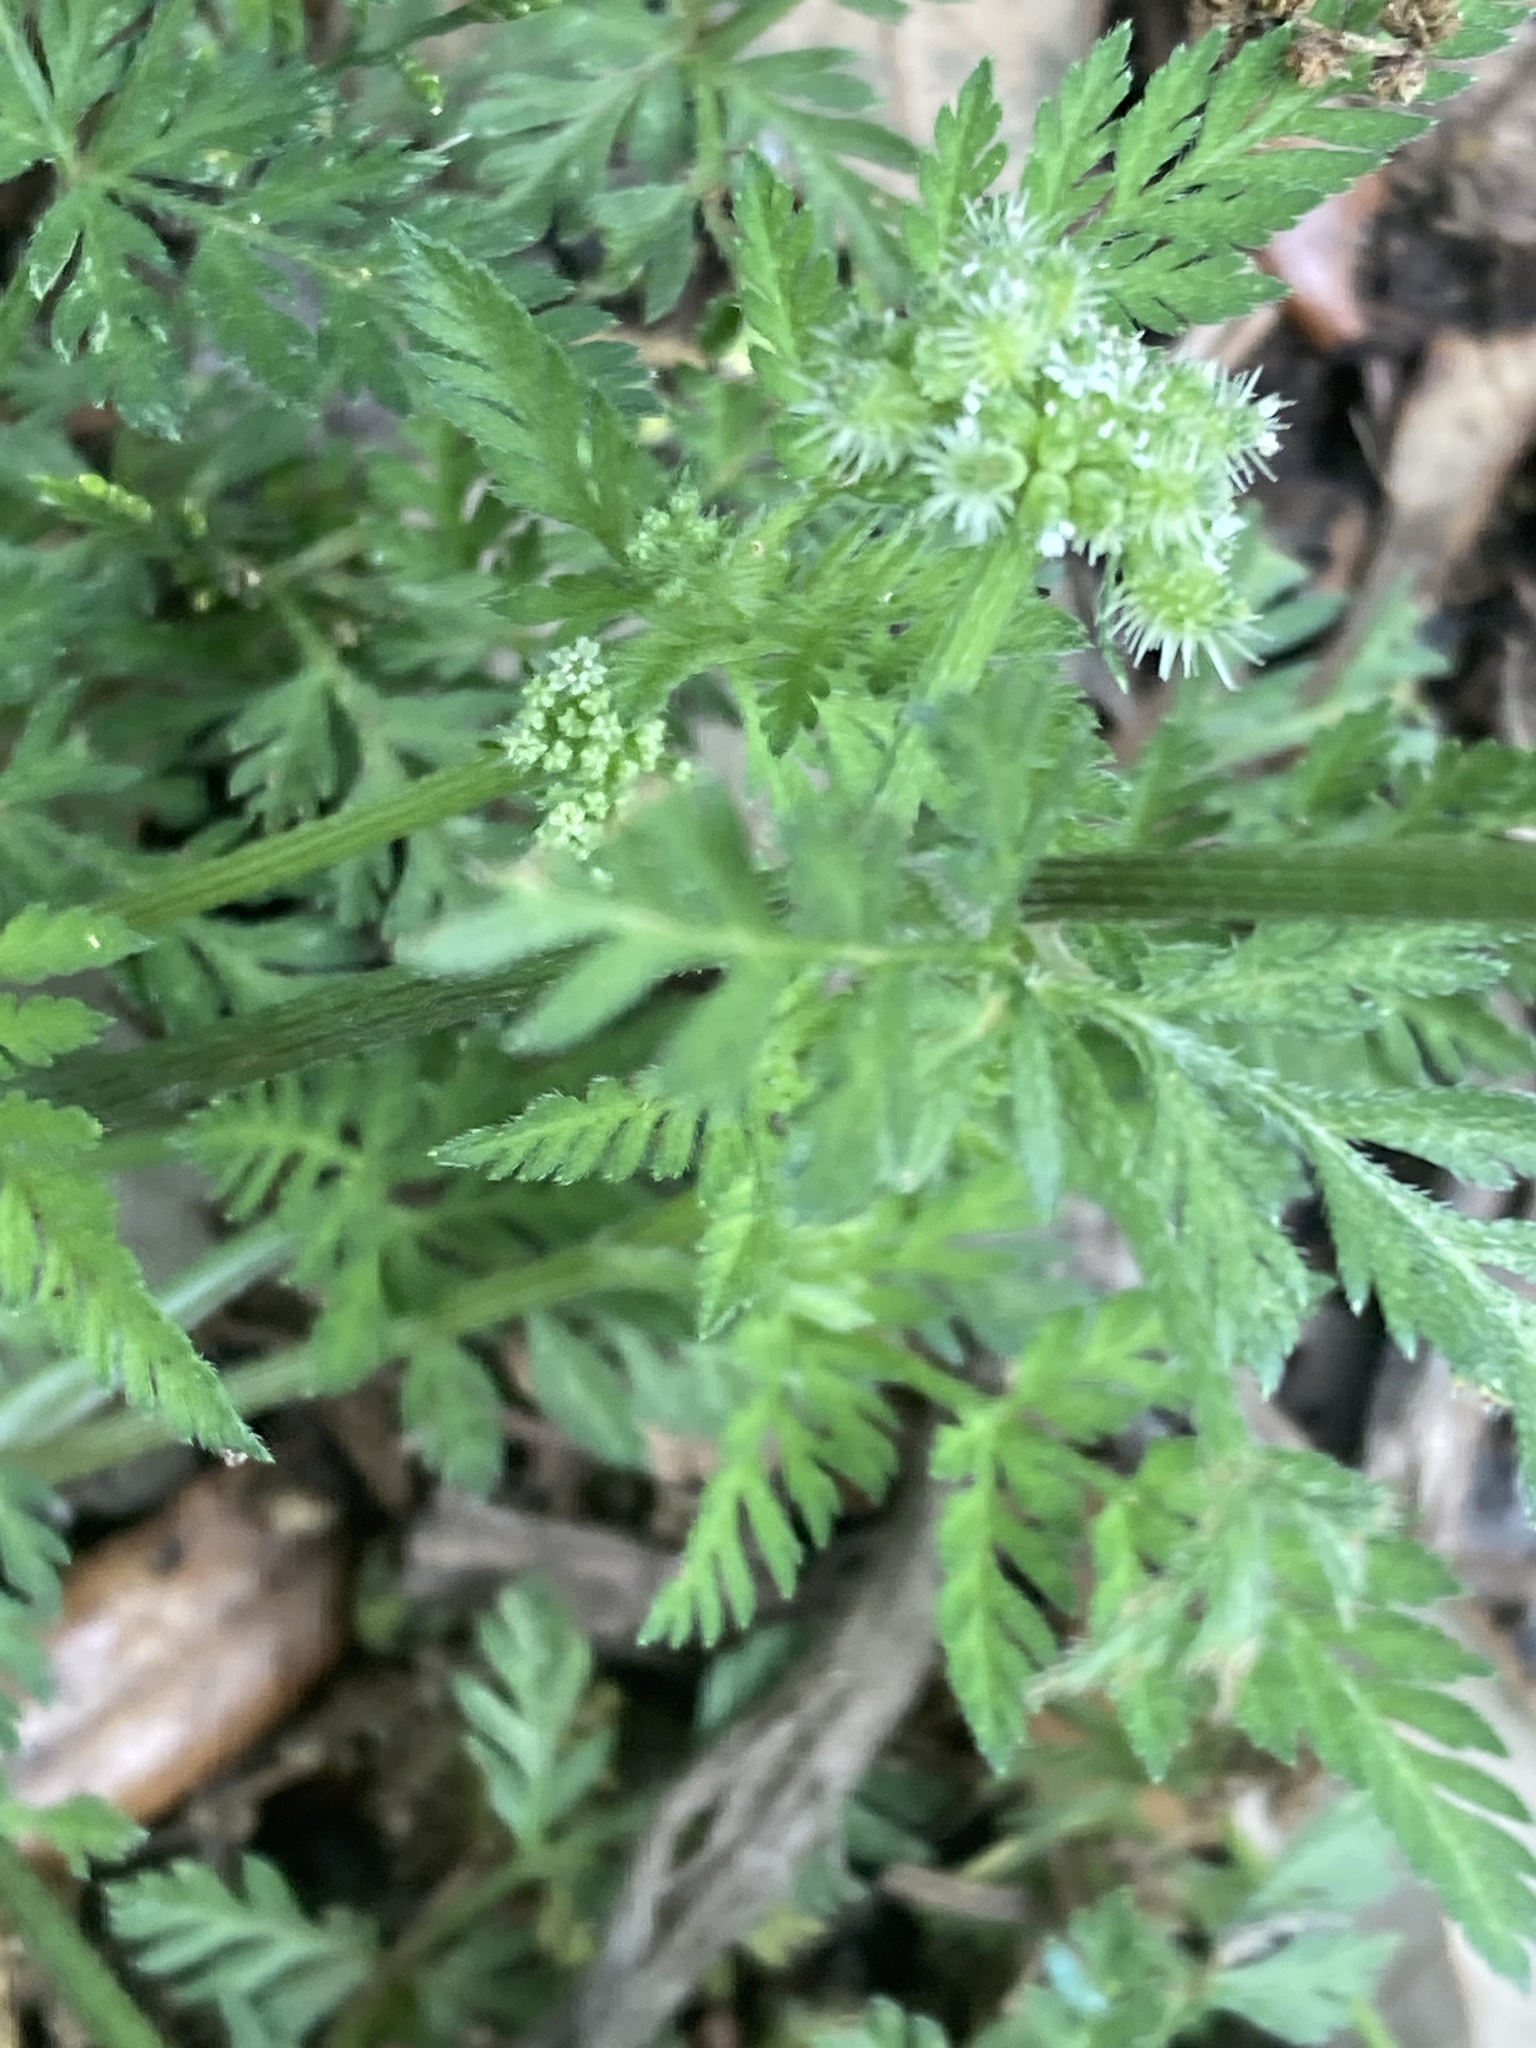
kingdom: Plantae
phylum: Tracheophyta
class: Magnoliopsida
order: Apiales
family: Apiaceae
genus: Torilis
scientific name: Torilis nodosa
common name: Knotted hedge-parsley
